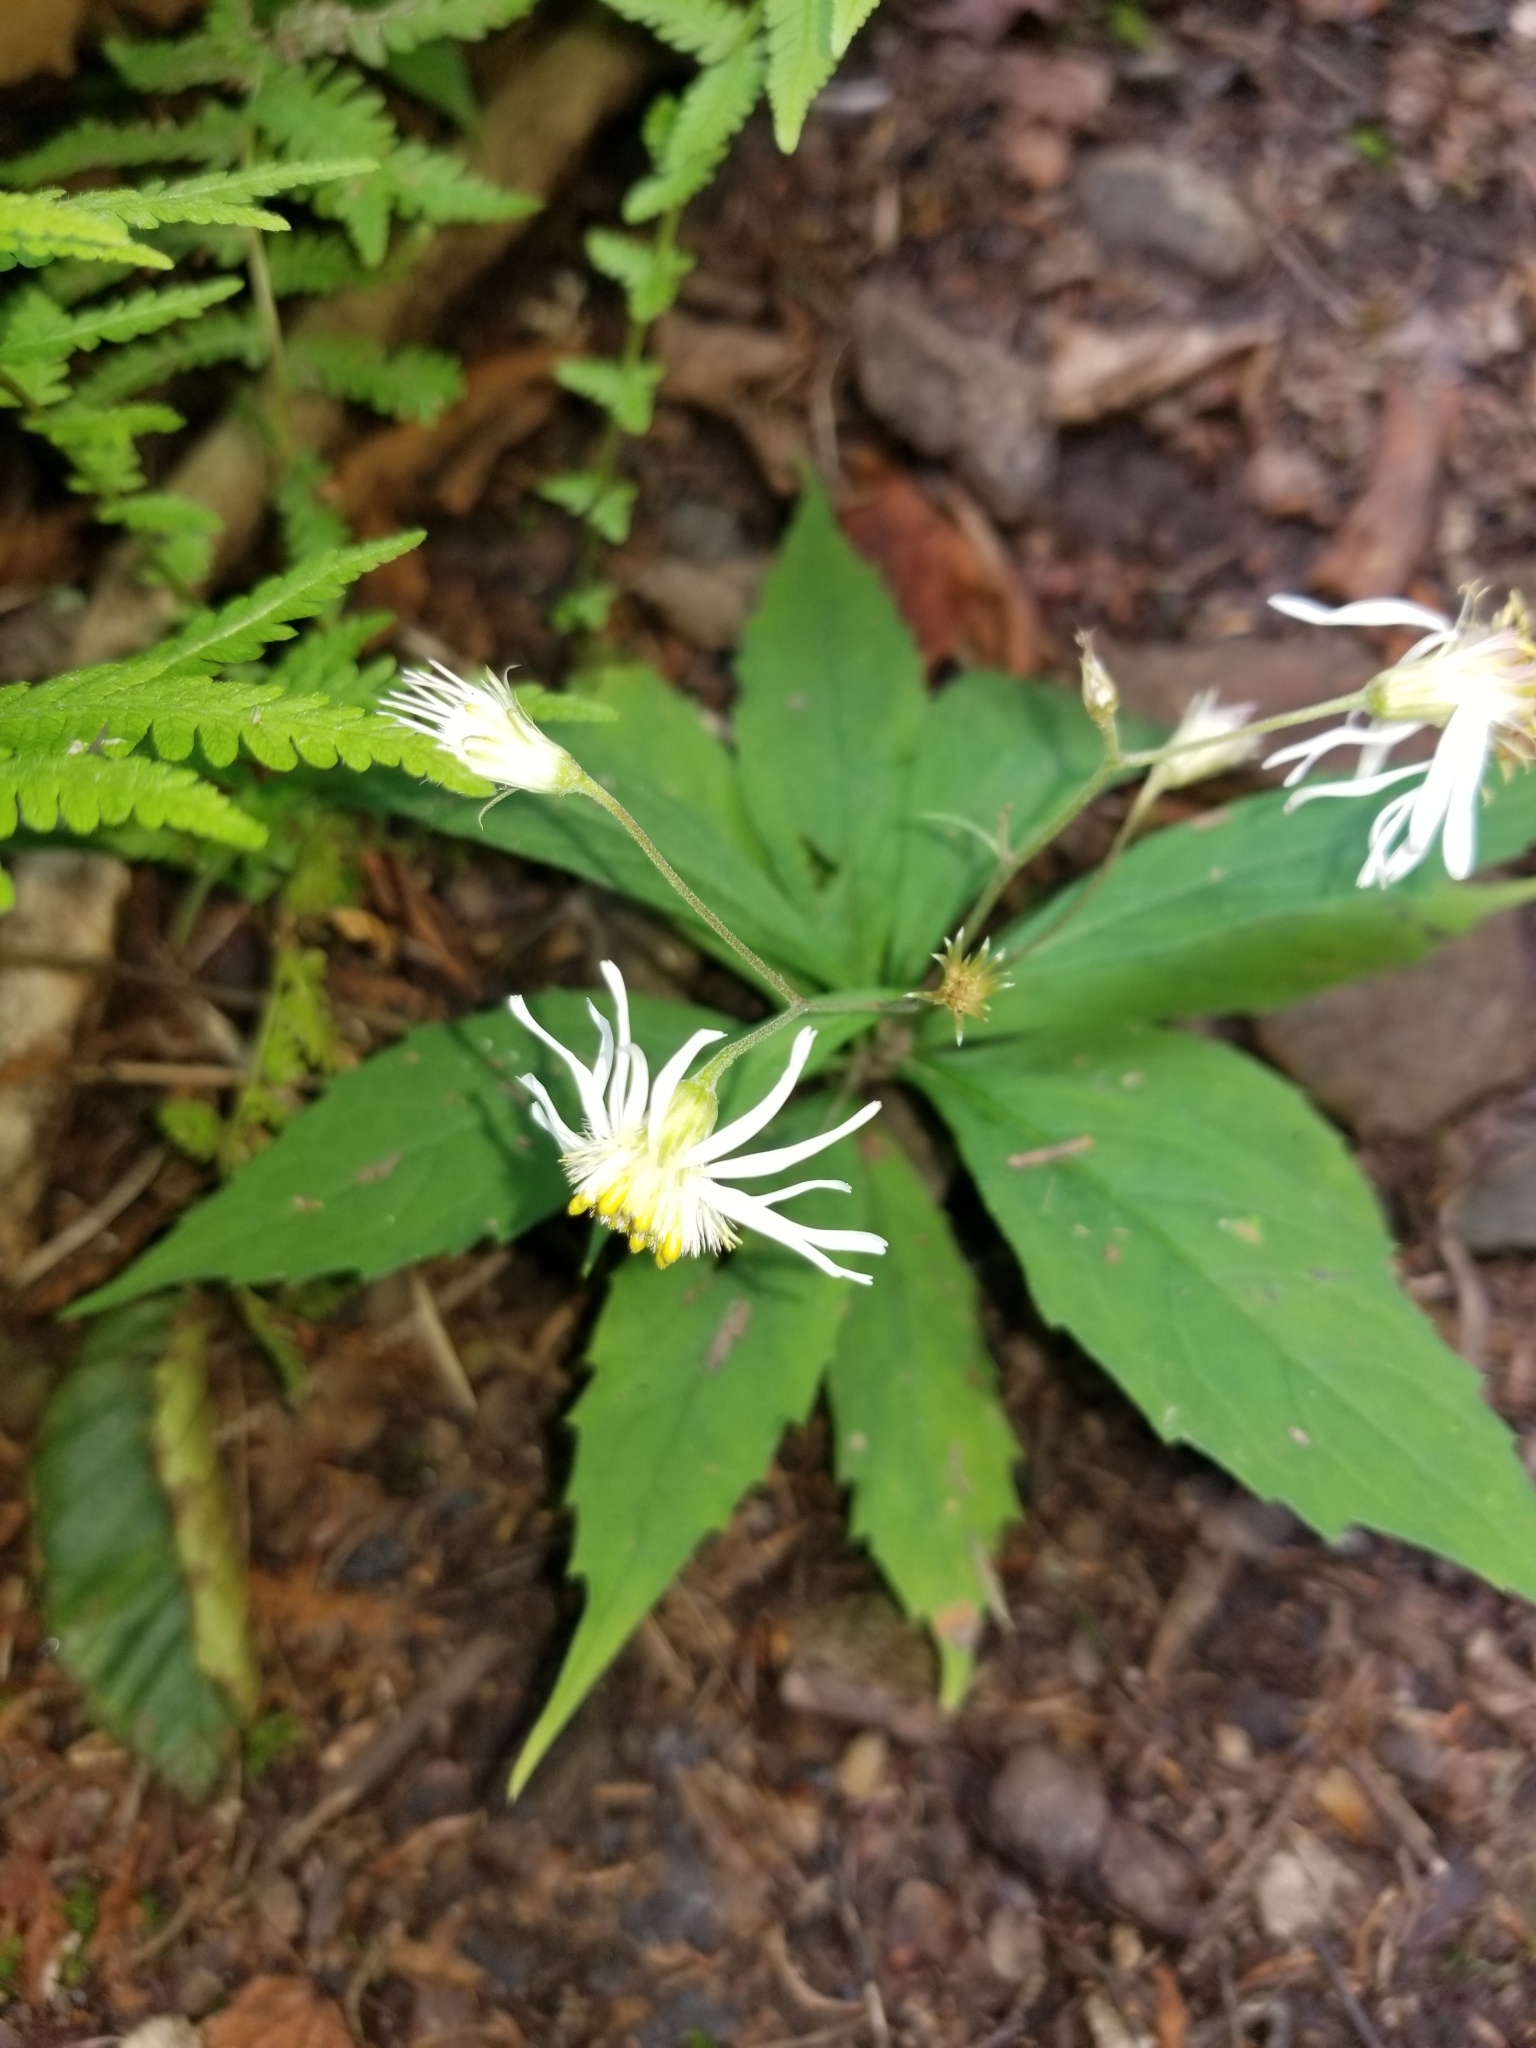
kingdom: Plantae
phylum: Tracheophyta
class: Magnoliopsida
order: Asterales
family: Asteraceae
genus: Oclemena
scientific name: Oclemena acuminata
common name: Mountain aster
